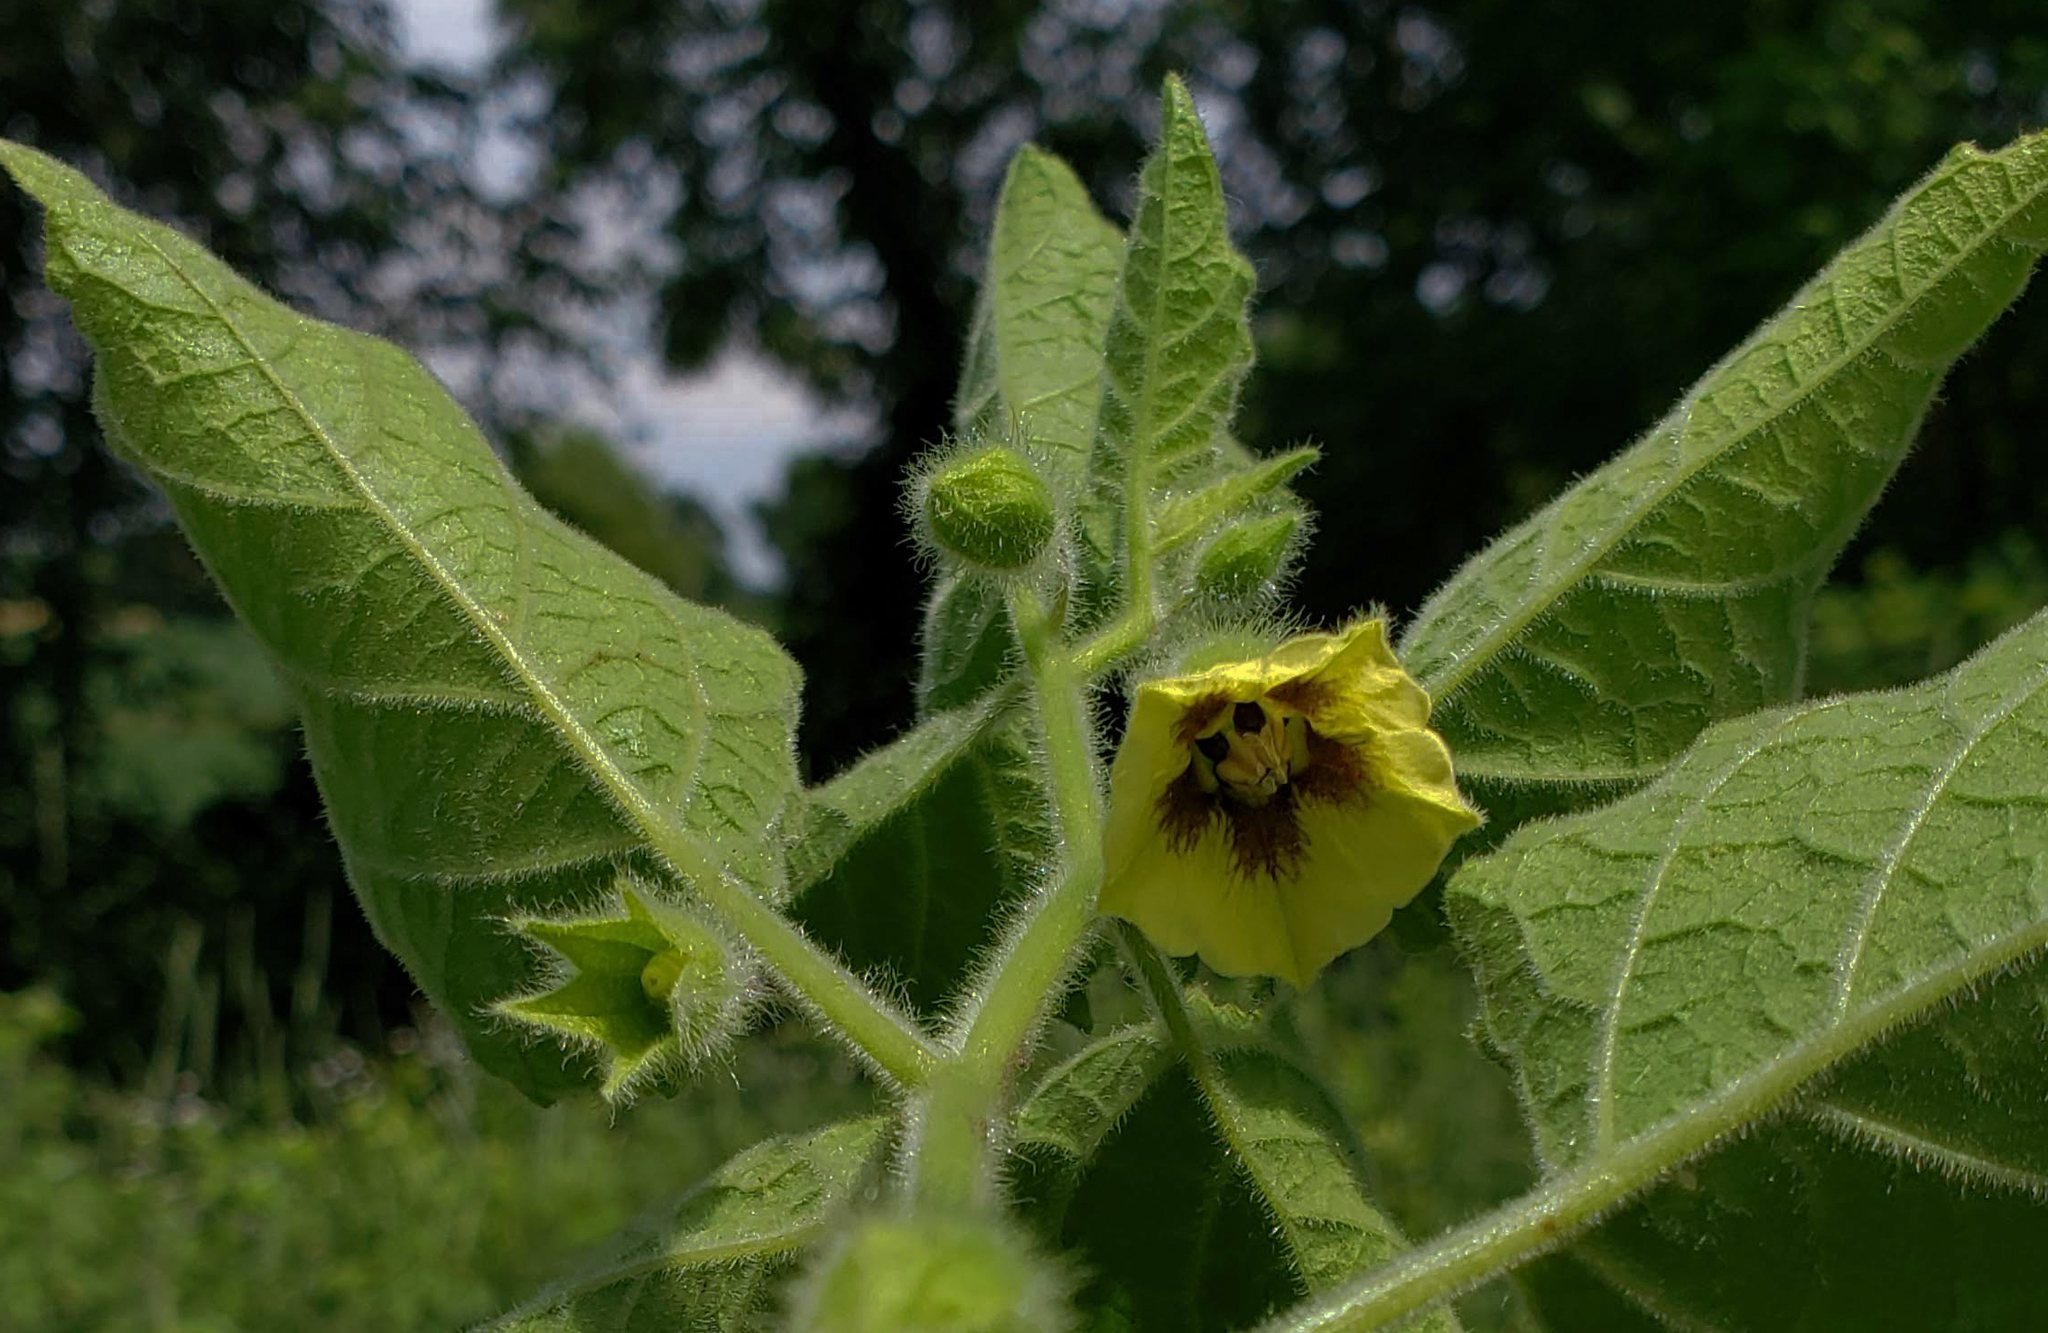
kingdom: Plantae
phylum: Tracheophyta
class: Magnoliopsida
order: Solanales
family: Solanaceae
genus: Physalis
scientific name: Physalis heterophylla
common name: Clammy ground-cherry
